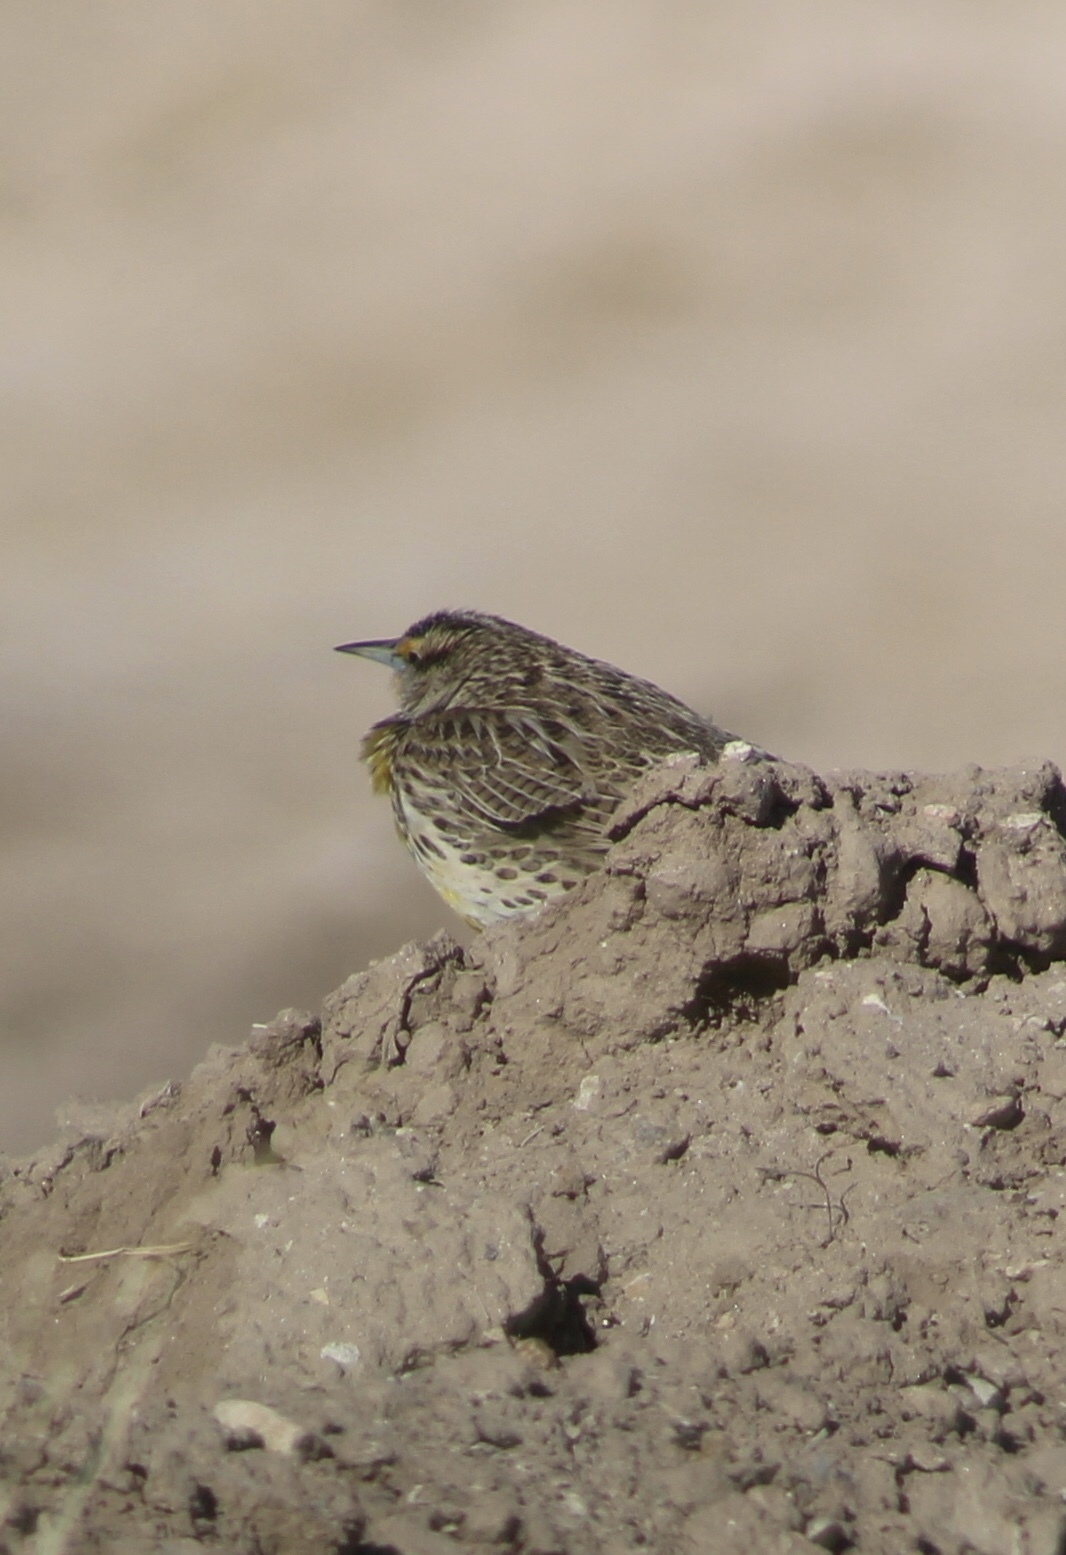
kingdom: Animalia
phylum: Chordata
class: Aves
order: Passeriformes
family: Icteridae
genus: Sturnella
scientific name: Sturnella neglecta
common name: Western meadowlark
